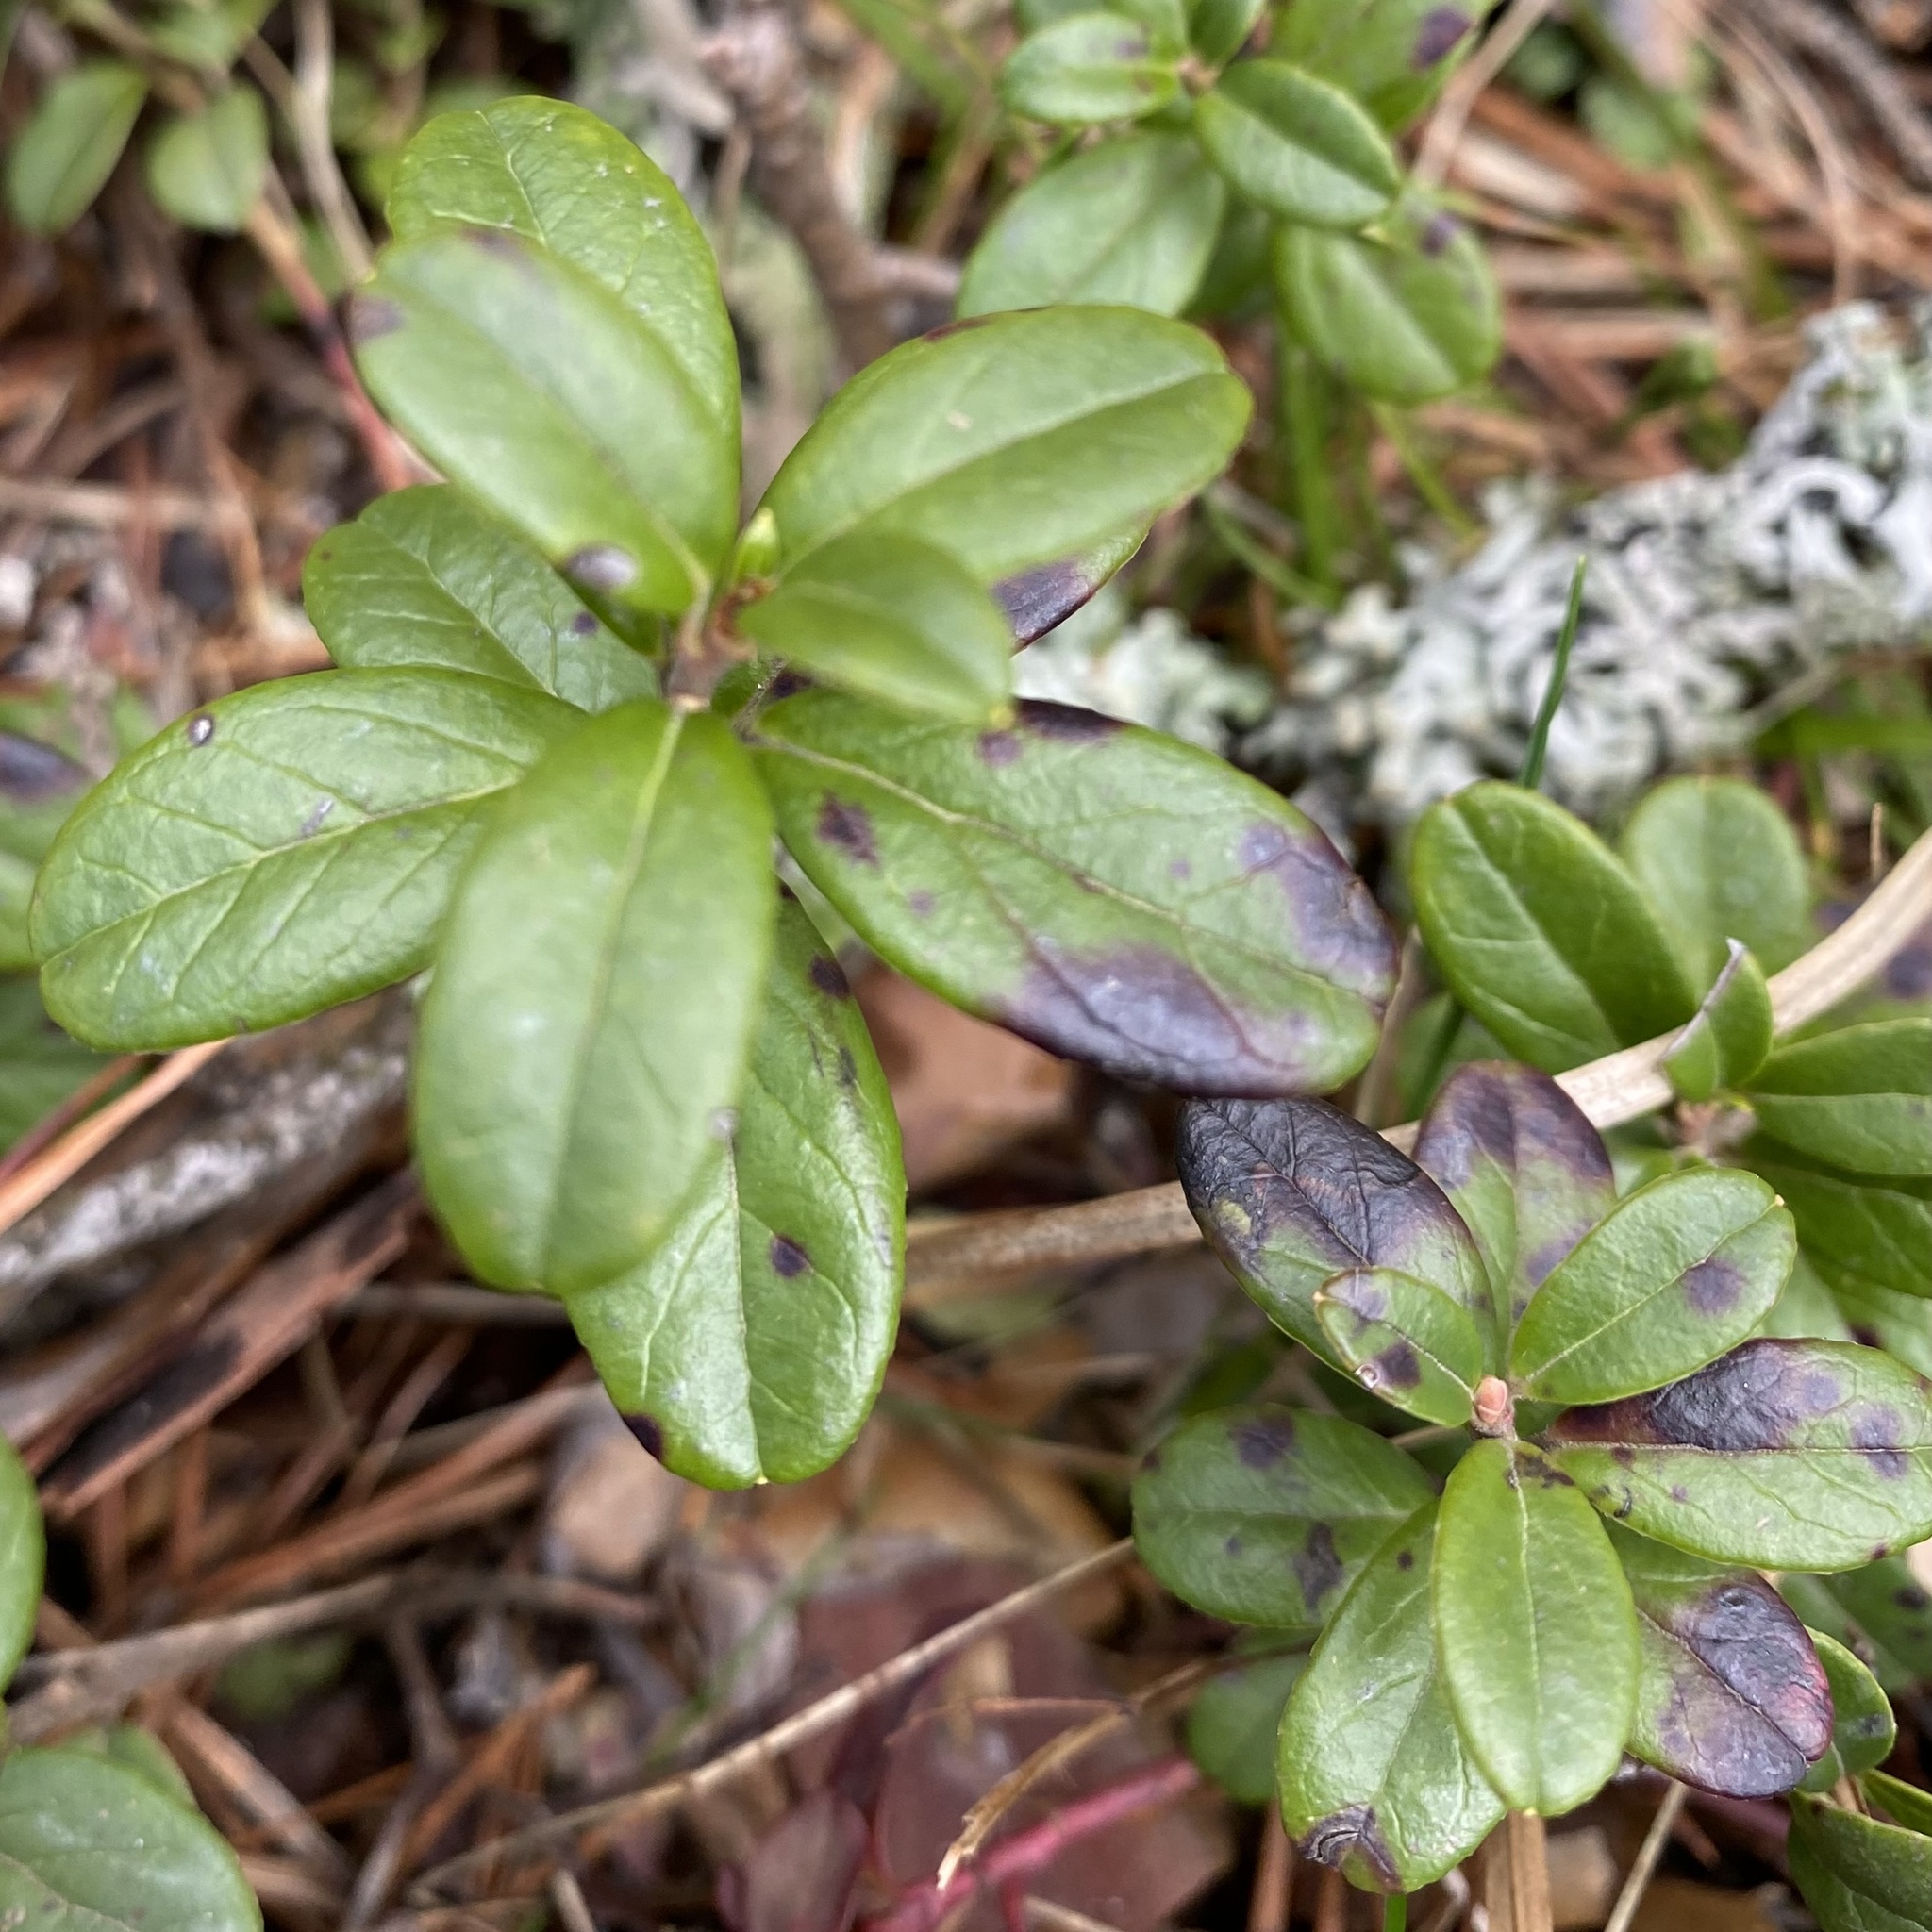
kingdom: Plantae
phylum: Tracheophyta
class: Magnoliopsida
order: Ericales
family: Ericaceae
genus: Vaccinium
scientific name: Vaccinium vitis-idaea
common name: Cowberry
